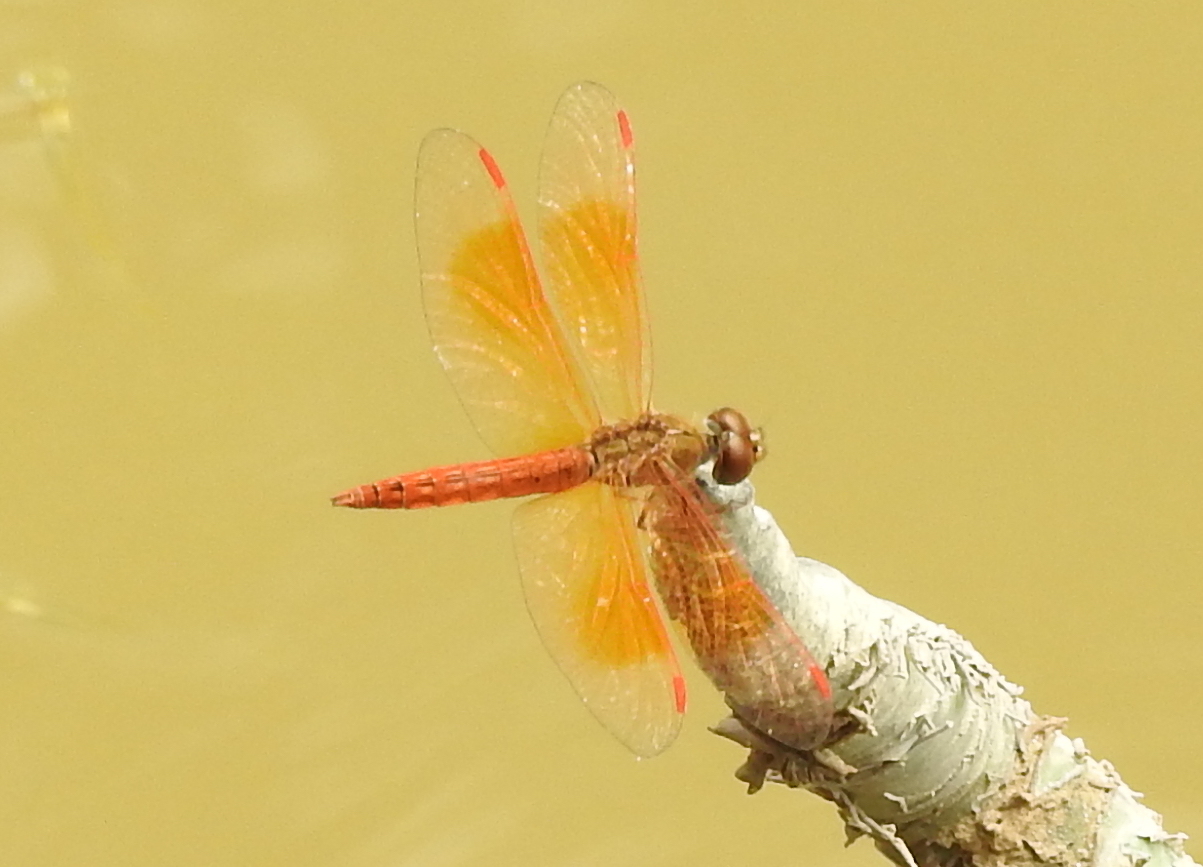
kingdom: Animalia
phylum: Arthropoda
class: Insecta
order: Odonata
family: Libellulidae
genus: Brachythemis
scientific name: Brachythemis contaminata
